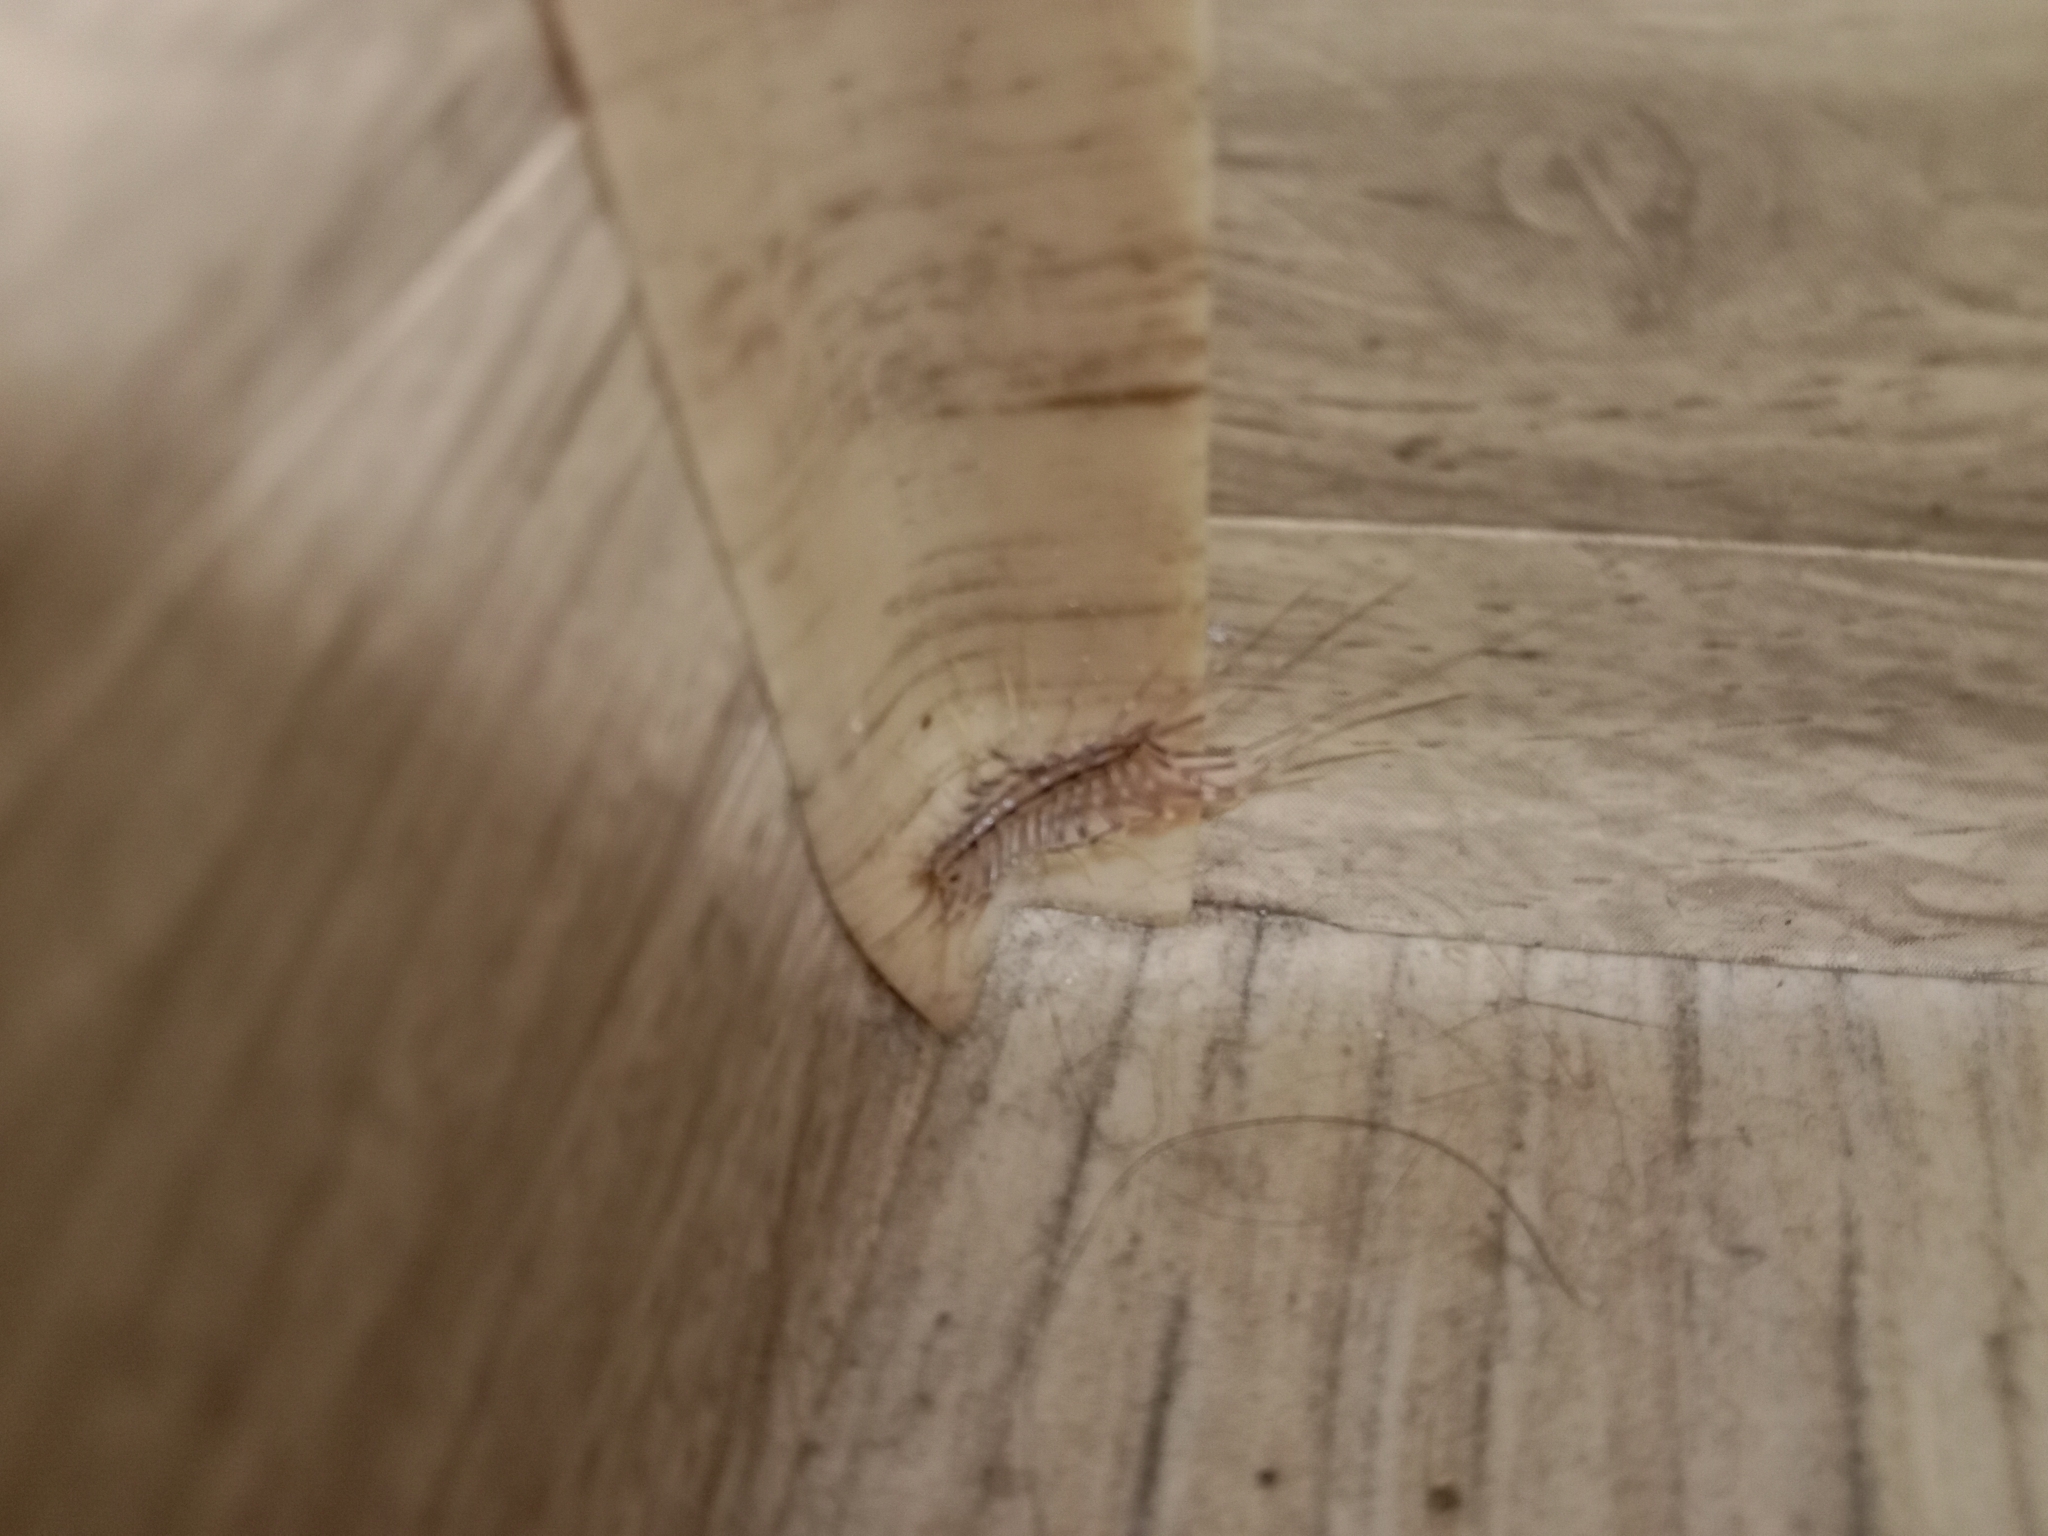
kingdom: Animalia
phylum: Arthropoda
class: Chilopoda
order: Scutigeromorpha
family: Scutigeridae
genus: Scutigera
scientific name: Scutigera coleoptrata
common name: House centipede
